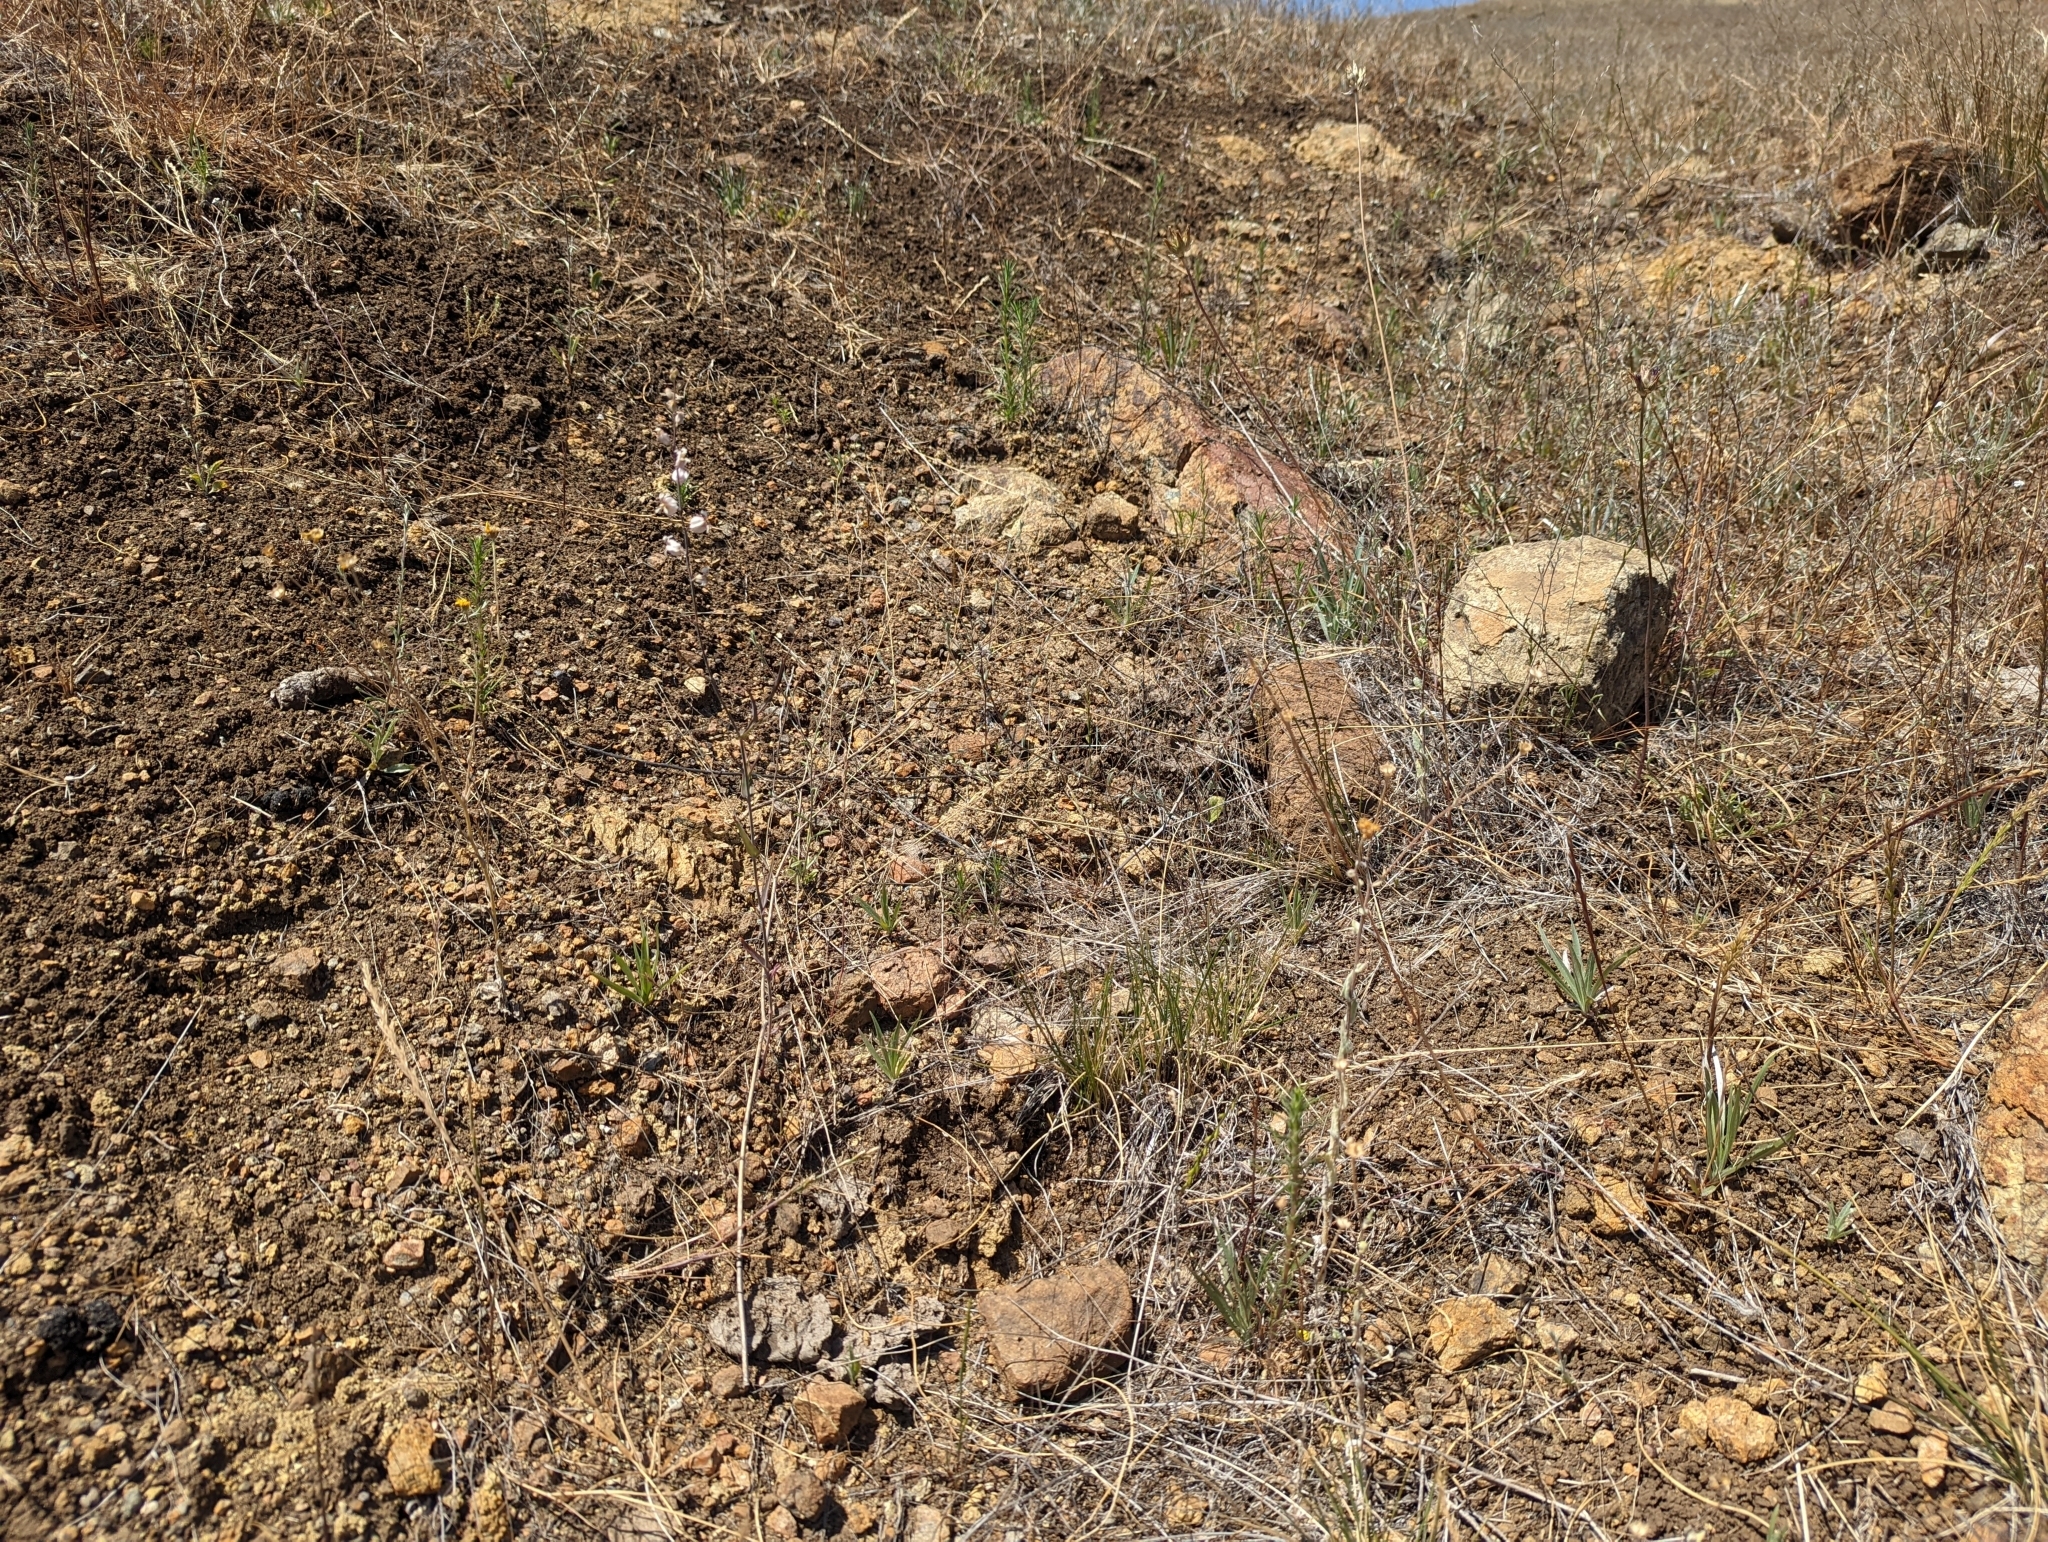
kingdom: Plantae
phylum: Tracheophyta
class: Magnoliopsida
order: Asterales
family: Asteraceae
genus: Monolopia
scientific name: Monolopia gracilens
